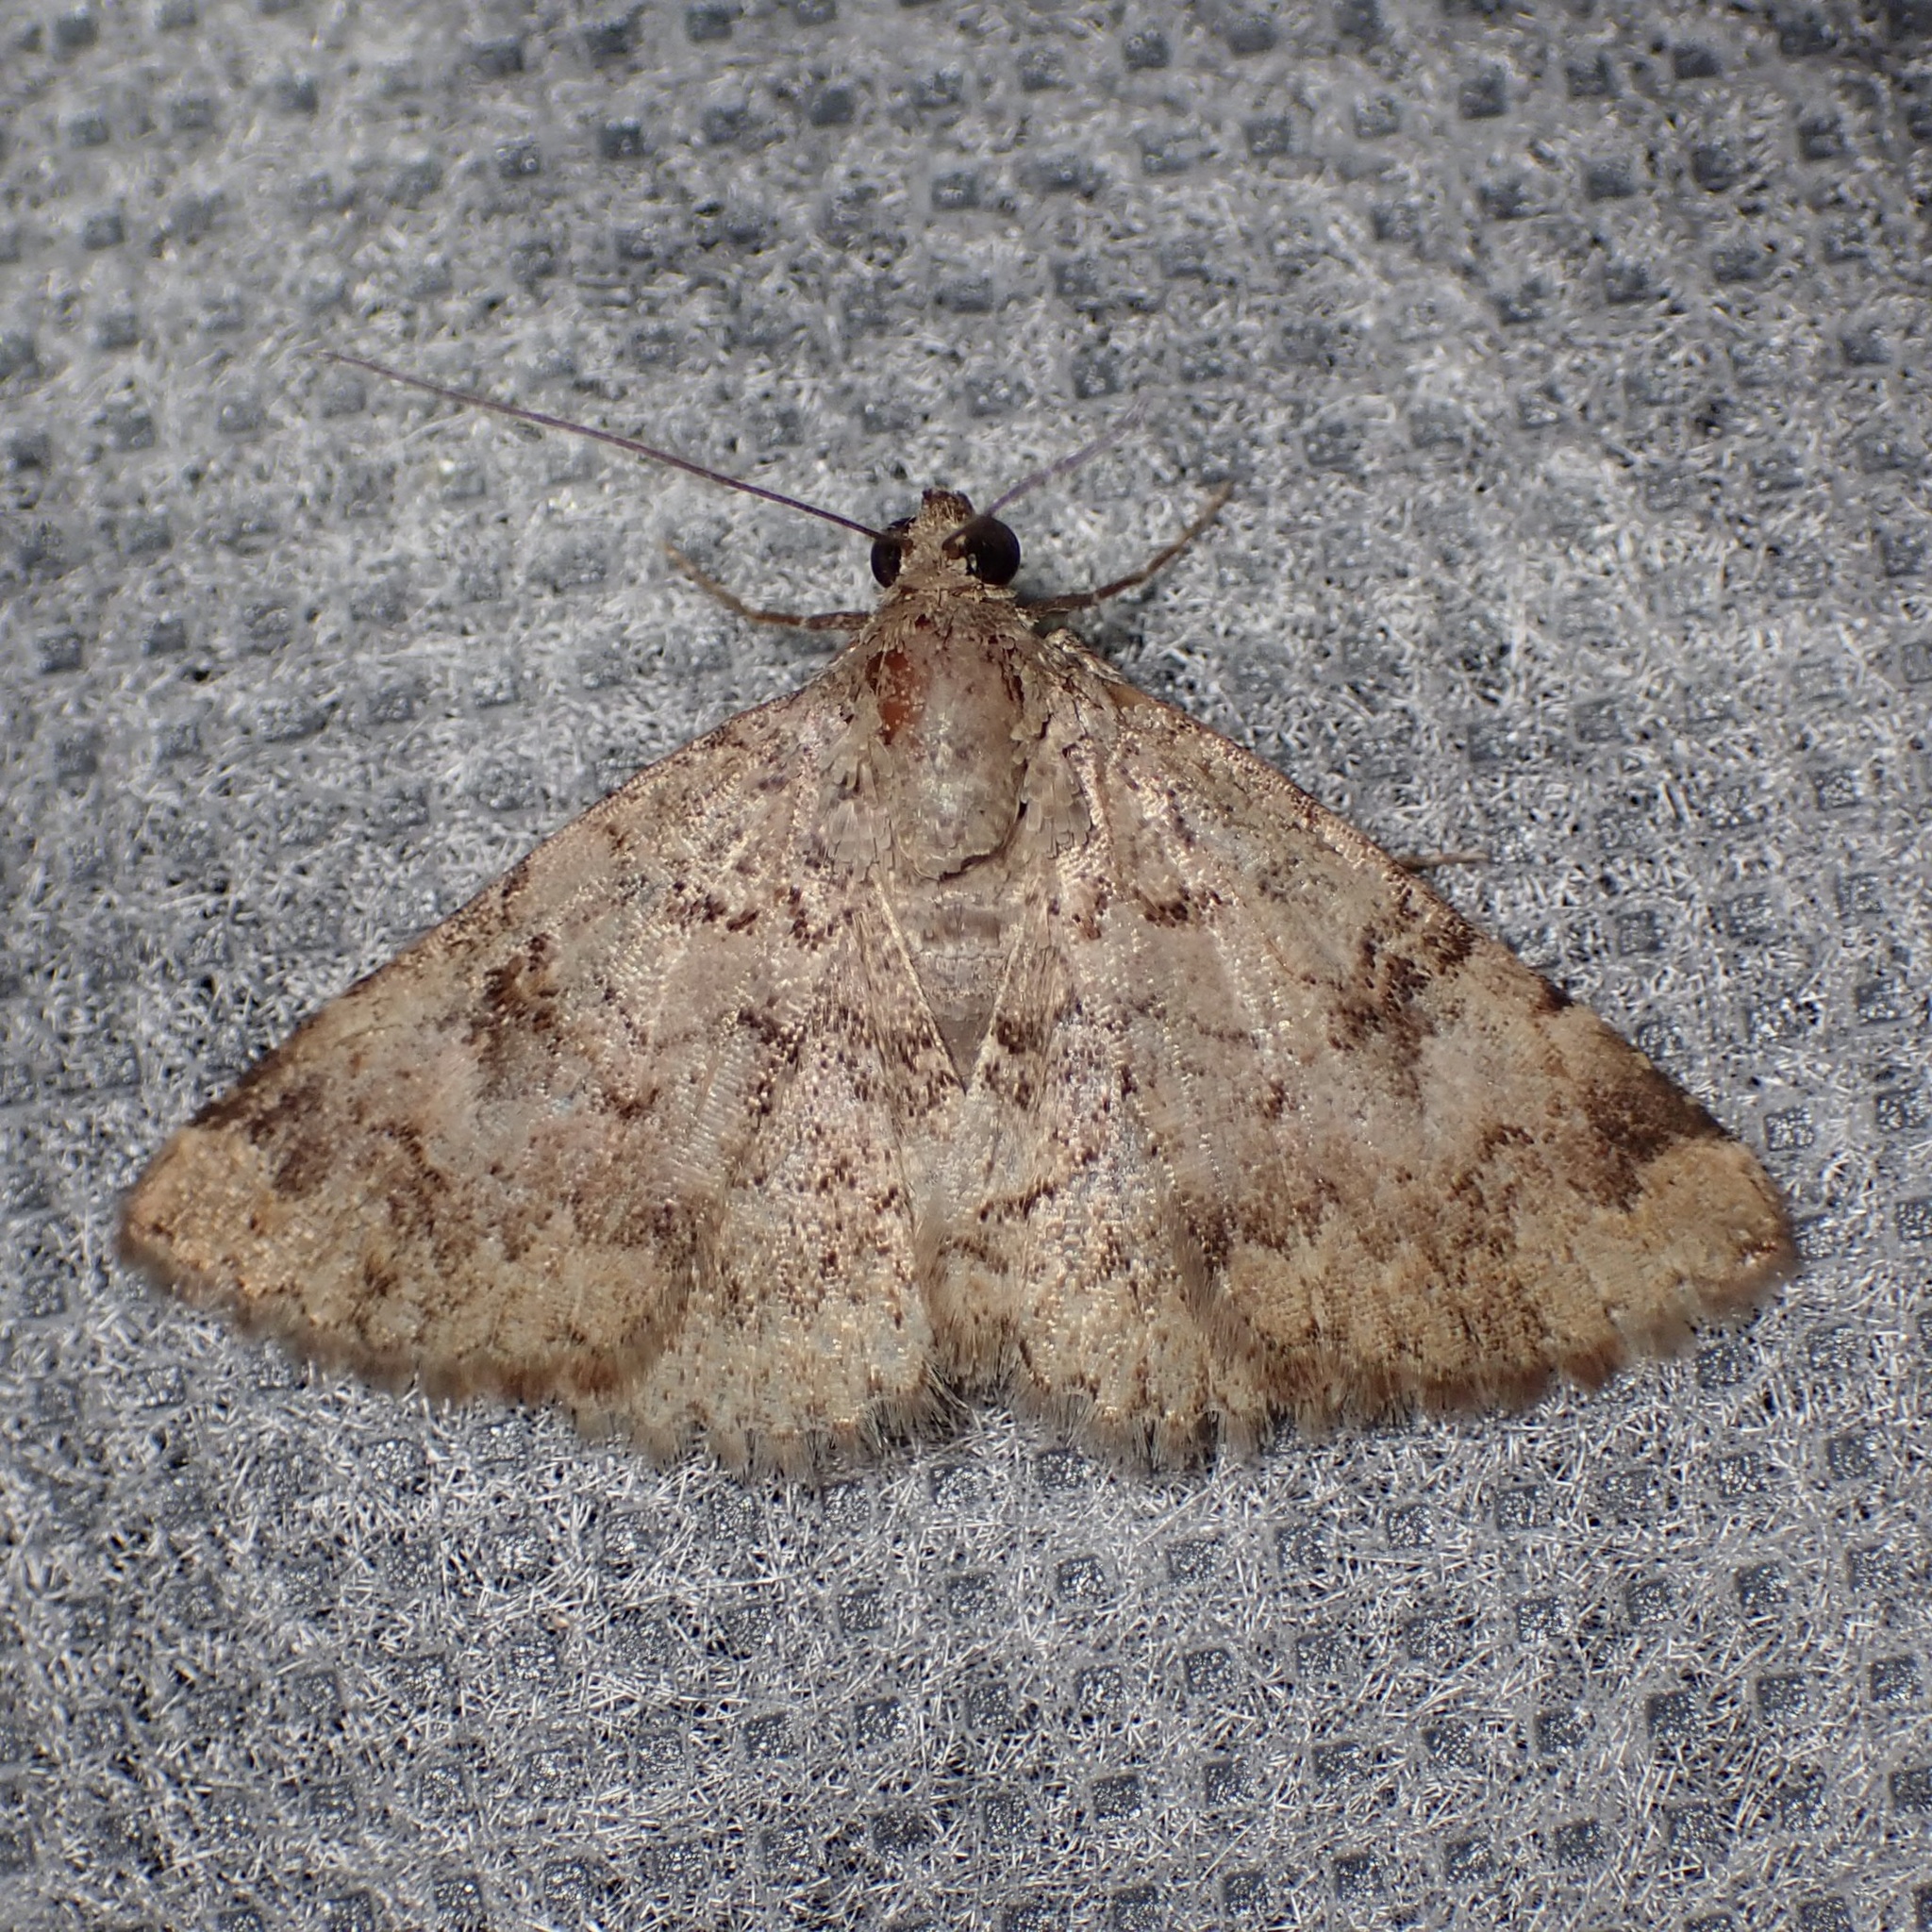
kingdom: Animalia
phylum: Arthropoda
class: Insecta
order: Lepidoptera
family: Erebidae
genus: Toxonprucha
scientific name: Toxonprucha volucris
